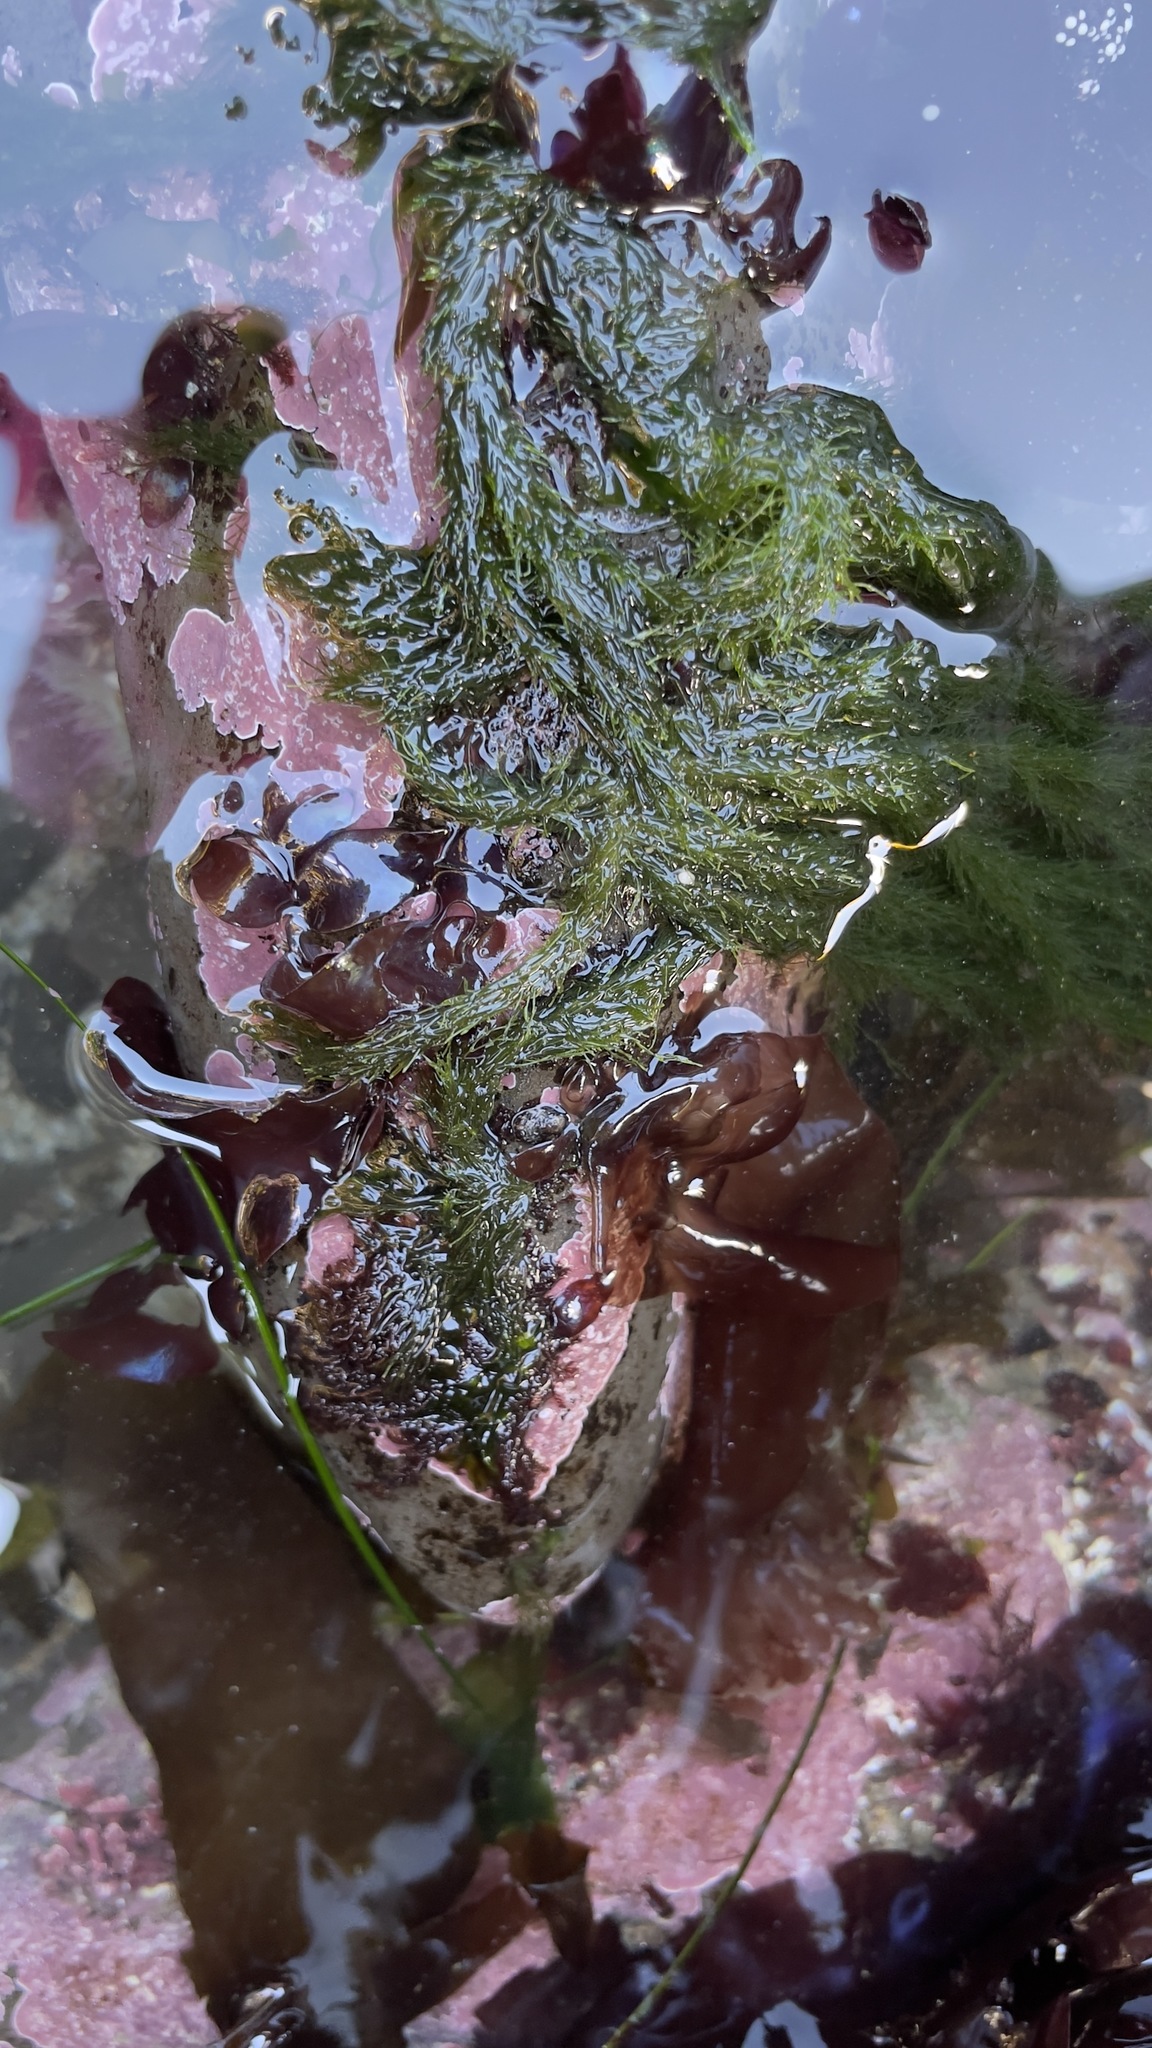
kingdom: Plantae
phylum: Chlorophyta
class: Ulvophyceae
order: Ulotrichales
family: Ulotrichaceae
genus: Acrosiphonia
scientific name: Acrosiphonia
